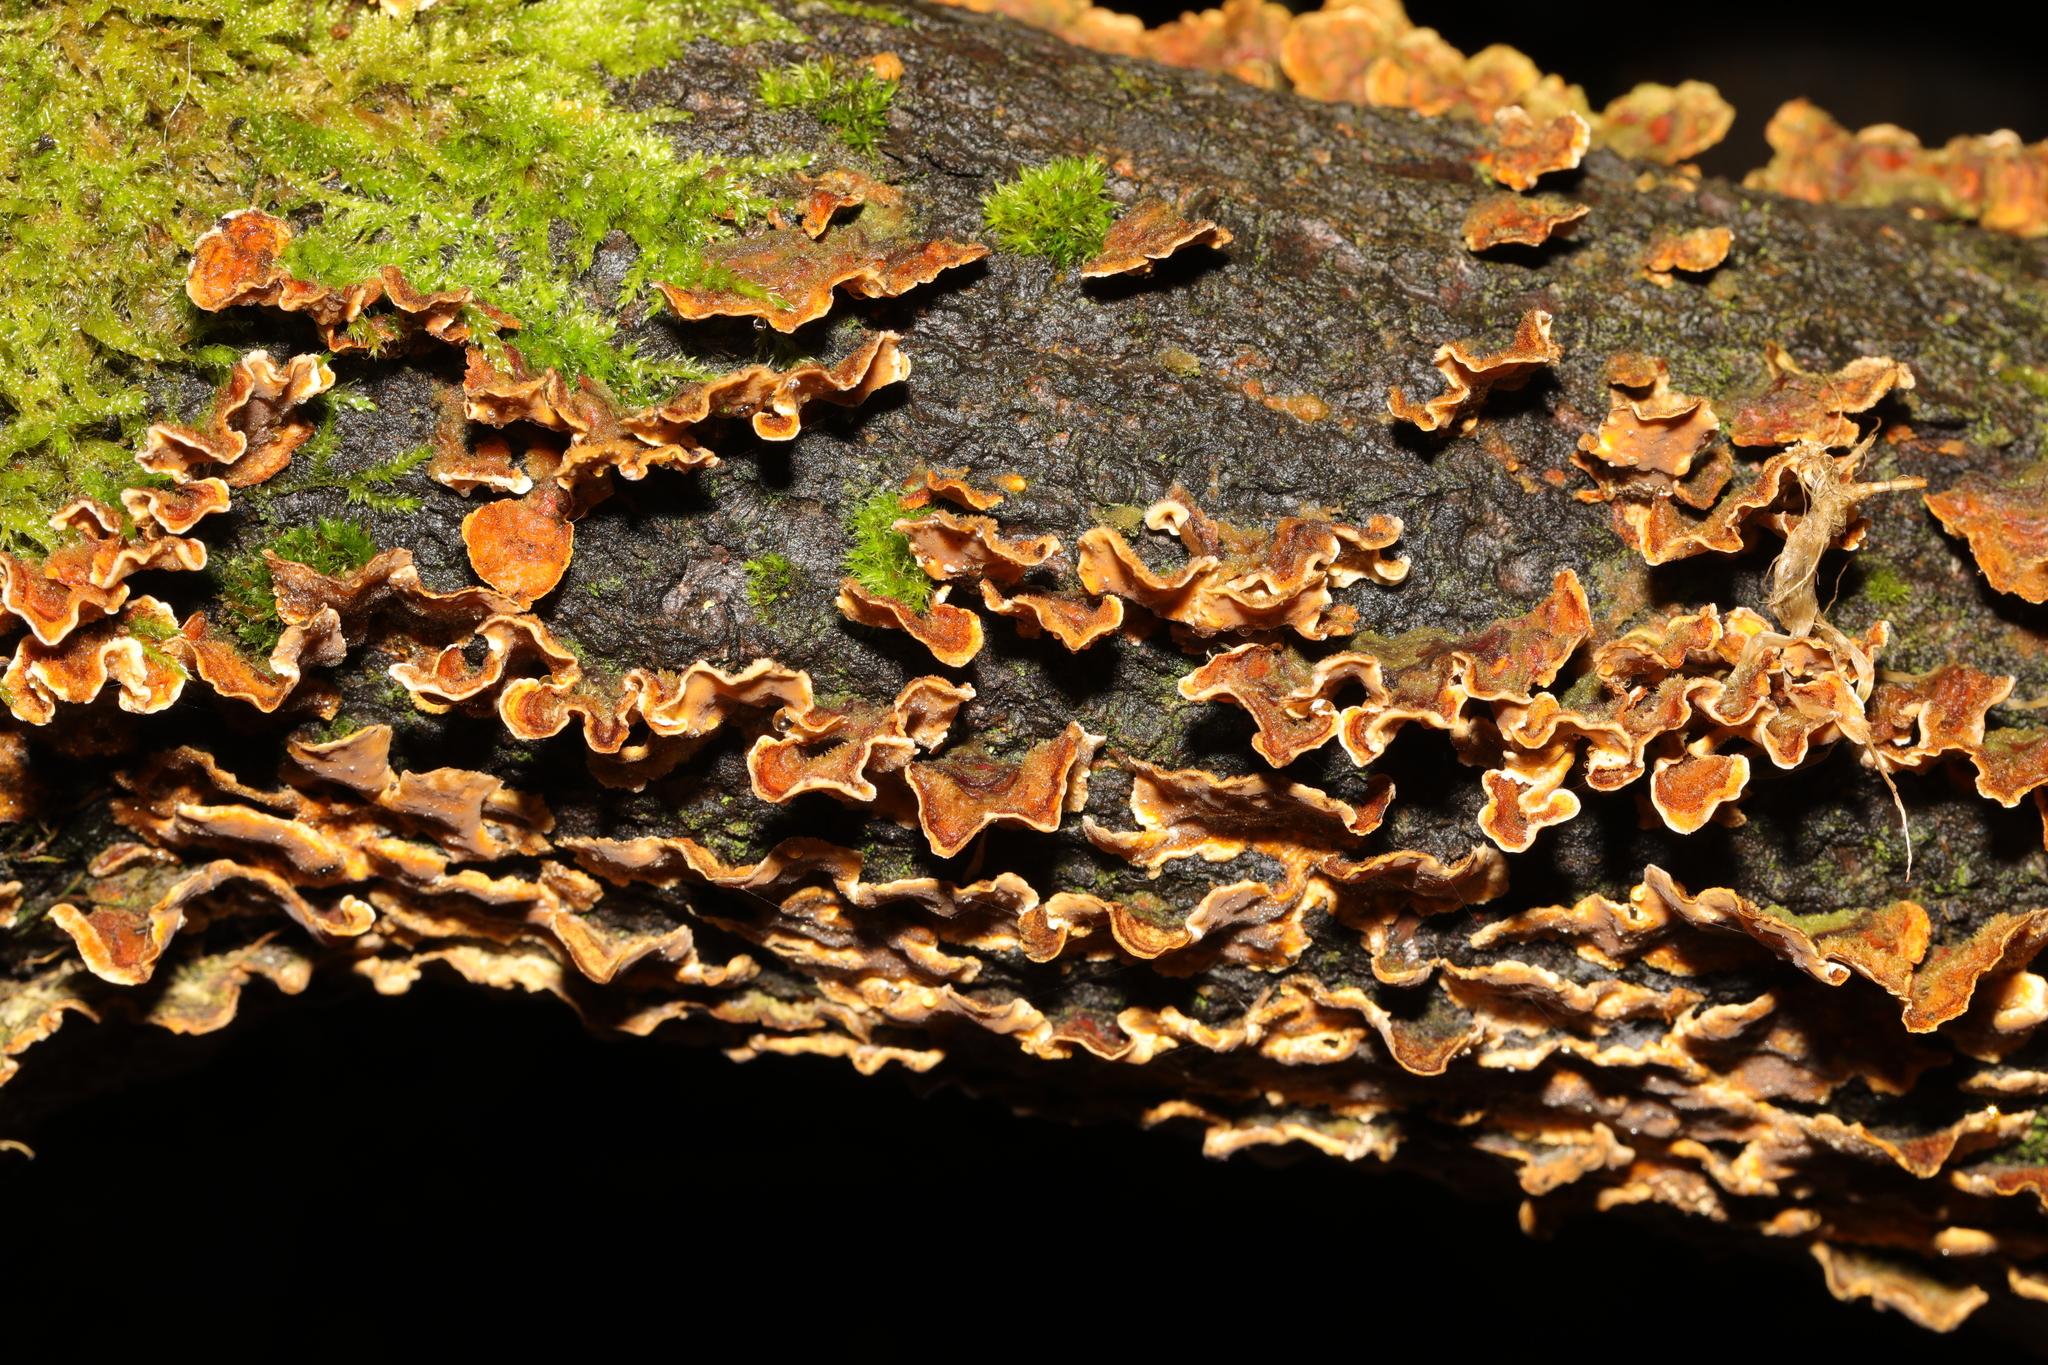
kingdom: Fungi
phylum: Basidiomycota
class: Agaricomycetes
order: Russulales
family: Stereaceae
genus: Stereum
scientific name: Stereum hirsutum
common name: Hairy curtain crust
